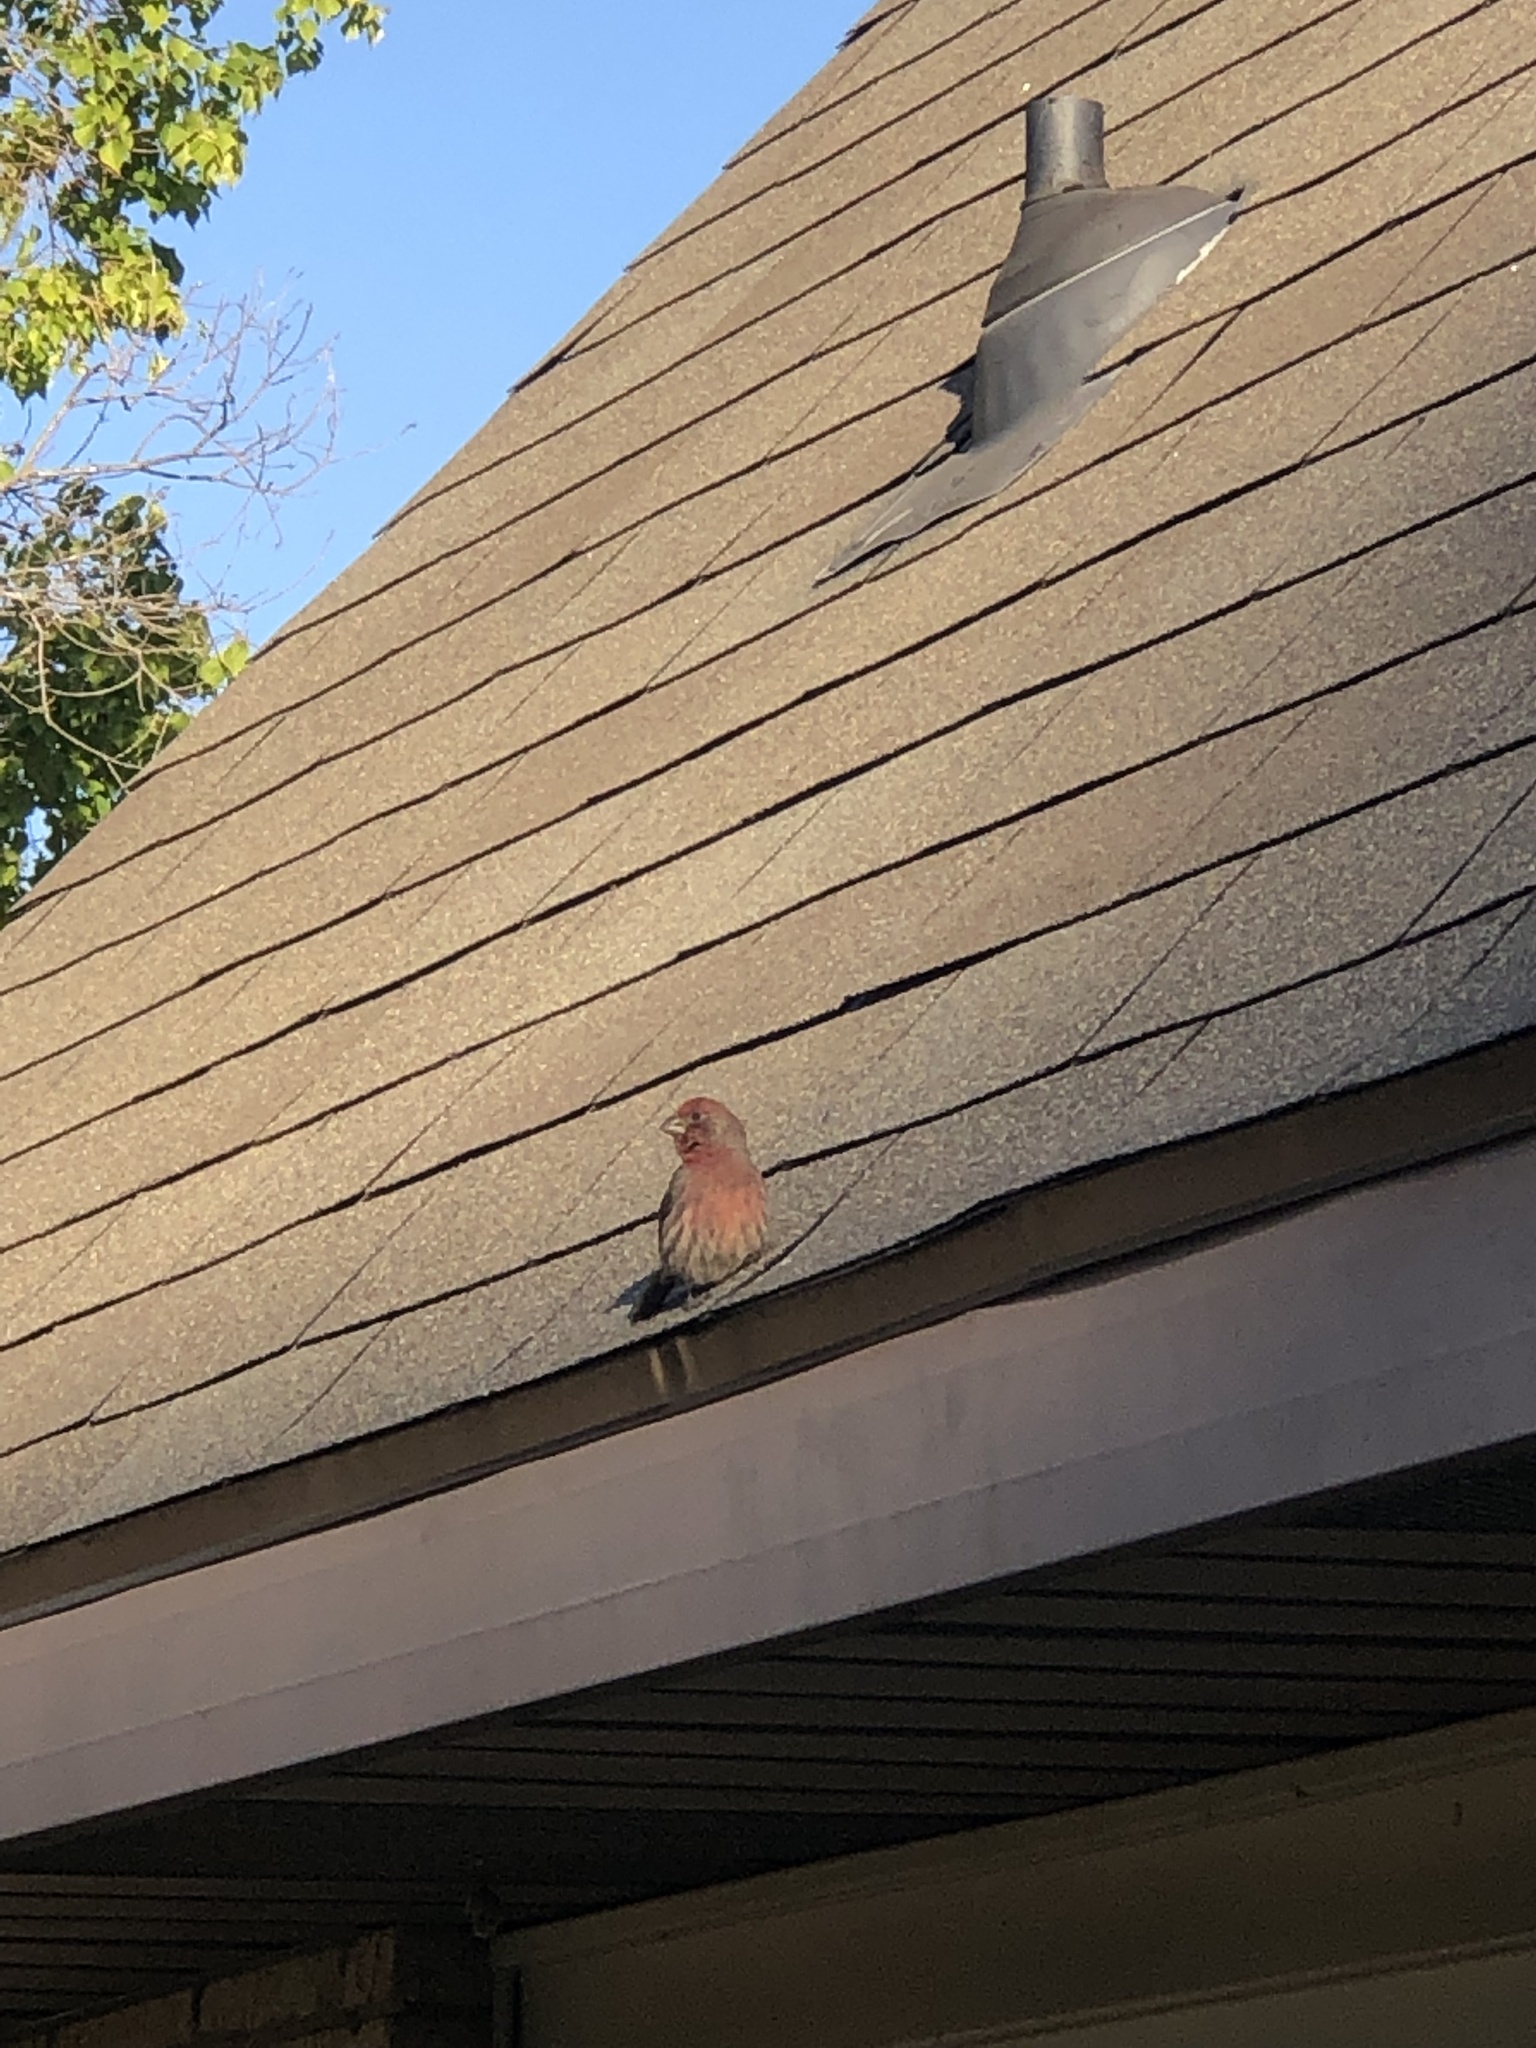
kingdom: Animalia
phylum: Chordata
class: Aves
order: Passeriformes
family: Fringillidae
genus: Haemorhous
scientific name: Haemorhous mexicanus
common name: House finch
